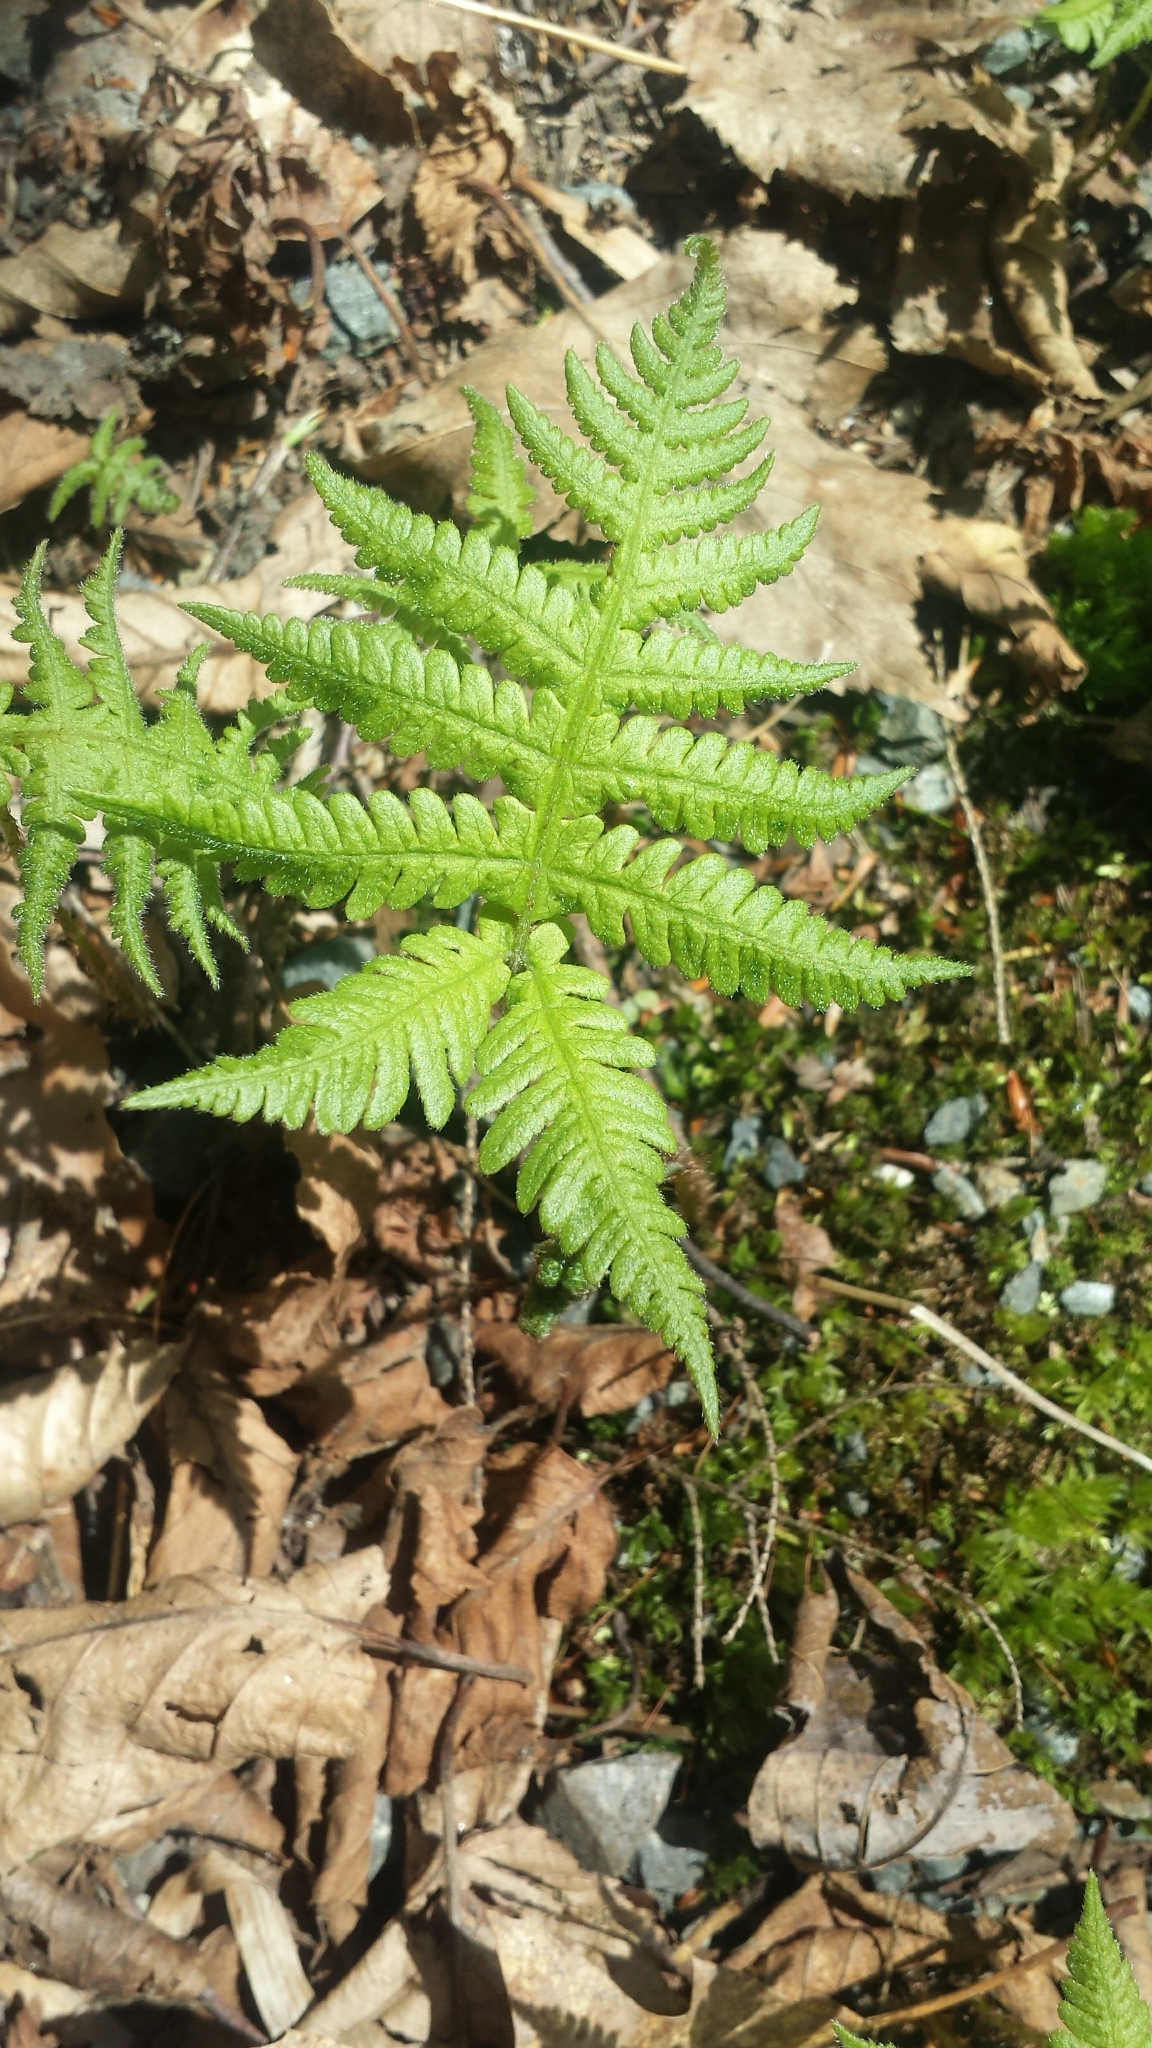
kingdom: Plantae
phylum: Tracheophyta
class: Polypodiopsida
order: Polypodiales
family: Thelypteridaceae
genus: Phegopteris
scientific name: Phegopteris connectilis
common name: Beech fern
